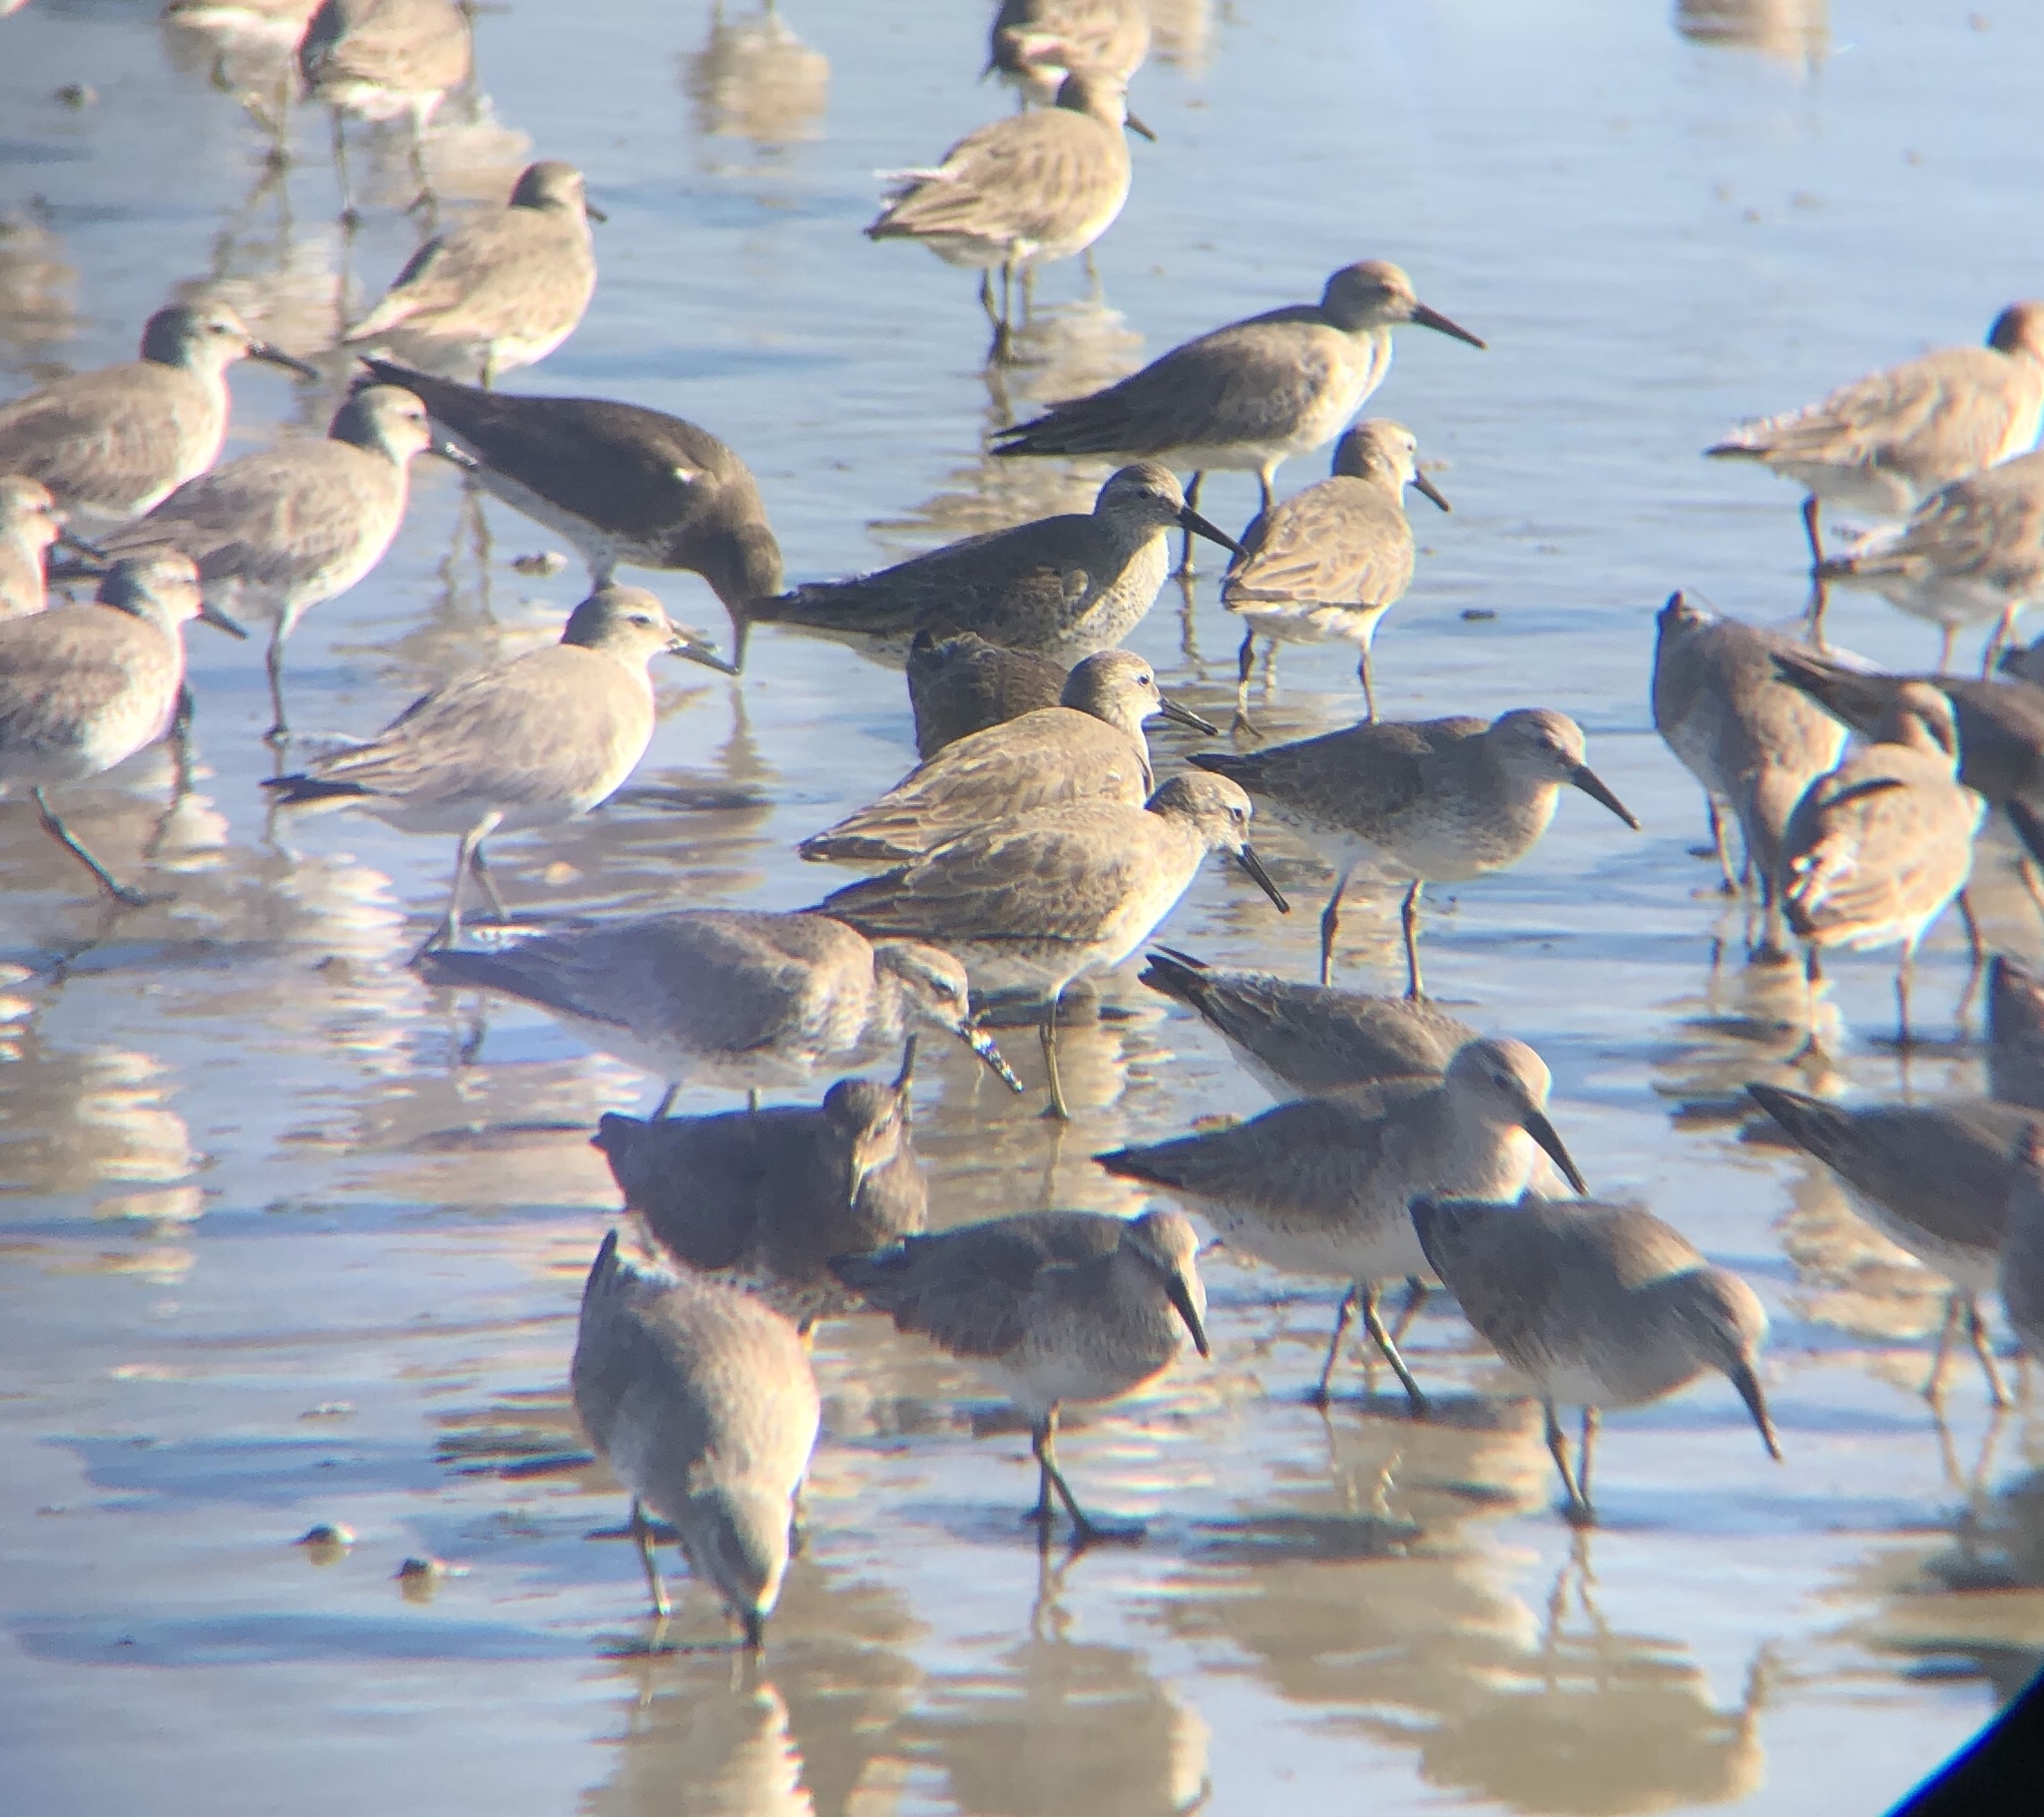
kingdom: Animalia
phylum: Chordata
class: Aves
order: Charadriiformes
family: Scolopacidae
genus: Calidris
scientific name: Calidris alpina
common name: Dunlin
